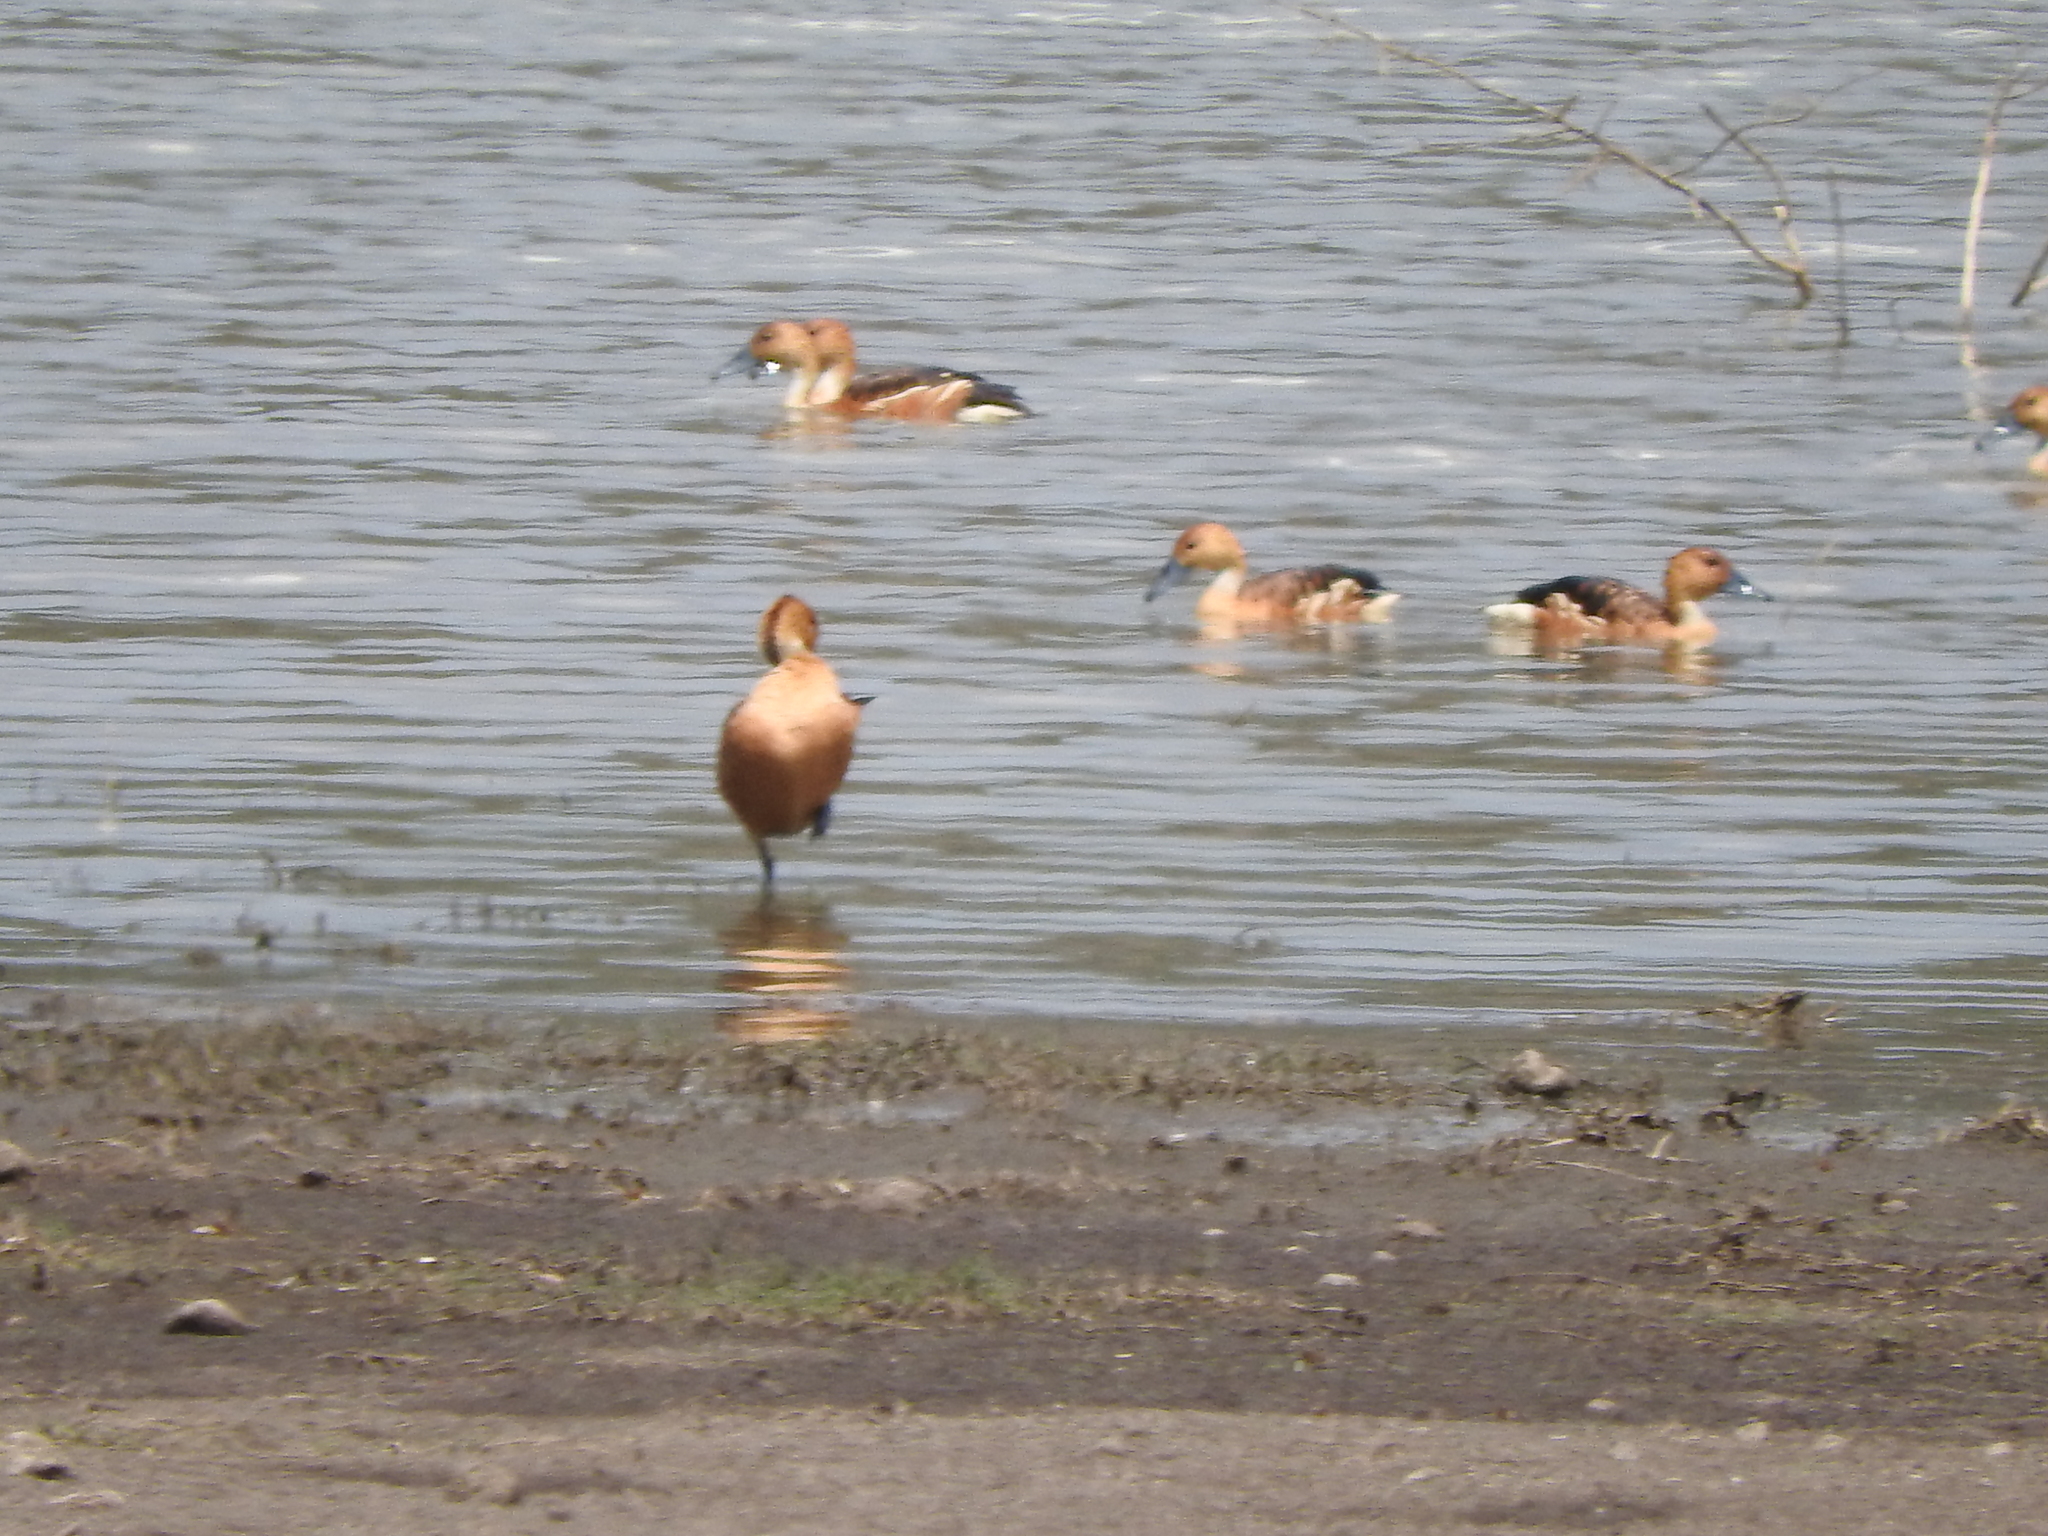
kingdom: Animalia
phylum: Chordata
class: Aves
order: Anseriformes
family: Anatidae
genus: Dendrocygna
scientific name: Dendrocygna bicolor
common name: Fulvous whistling duck
